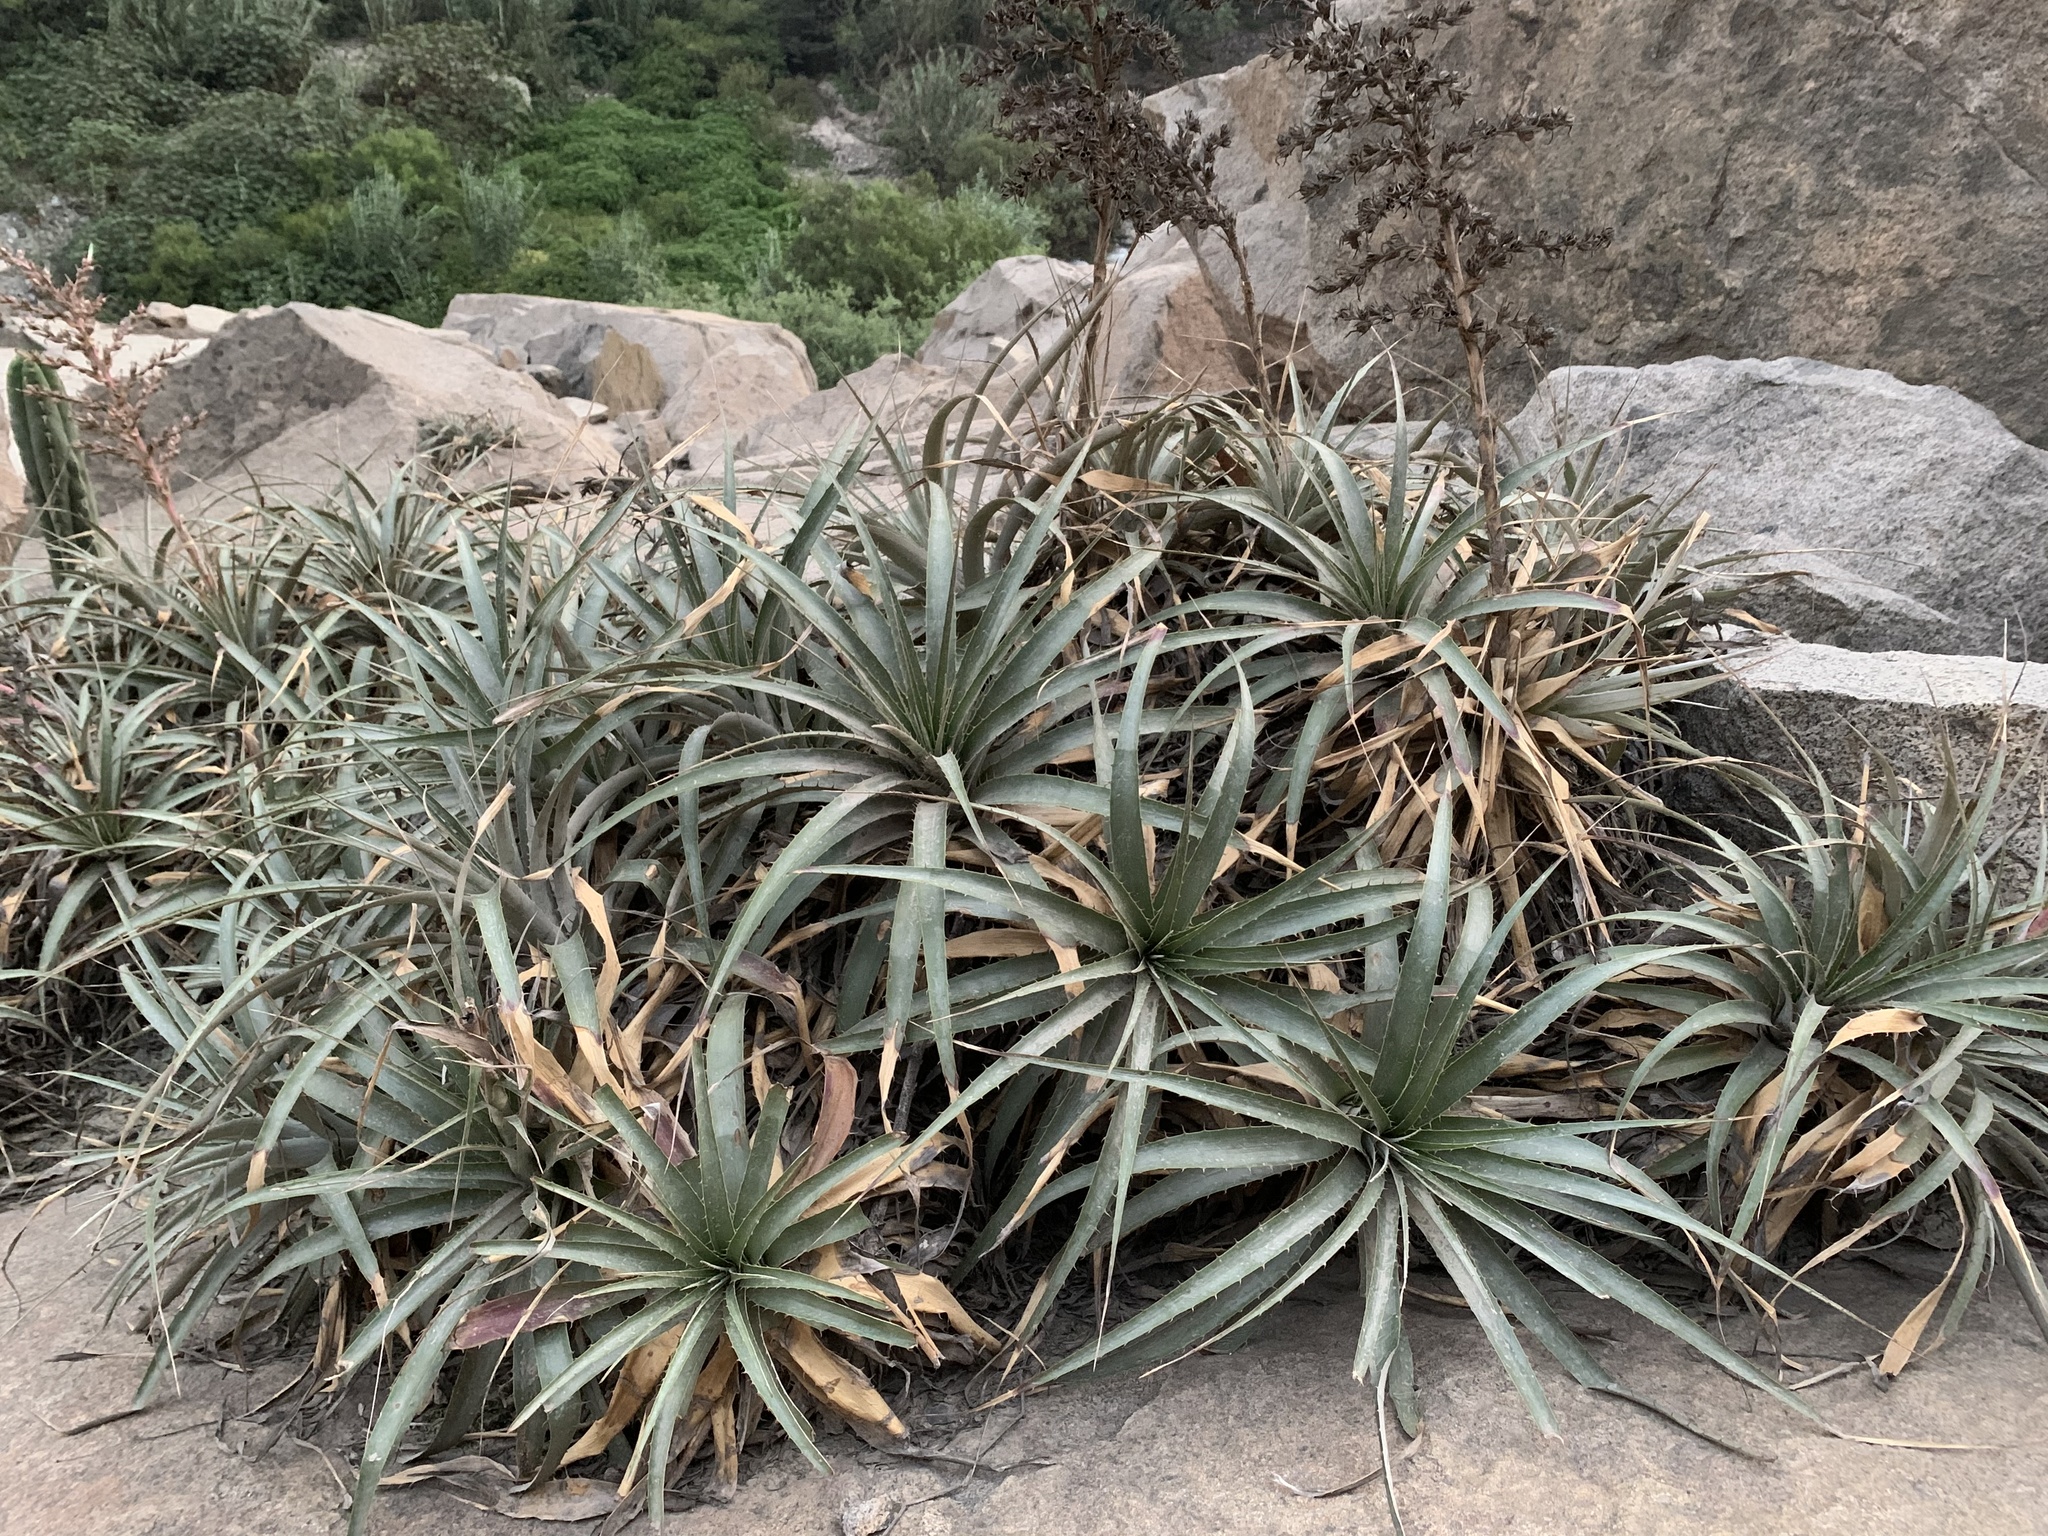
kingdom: Plantae
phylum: Tracheophyta
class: Liliopsida
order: Poales
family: Bromeliaceae
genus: Puya
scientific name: Puya roezlii
